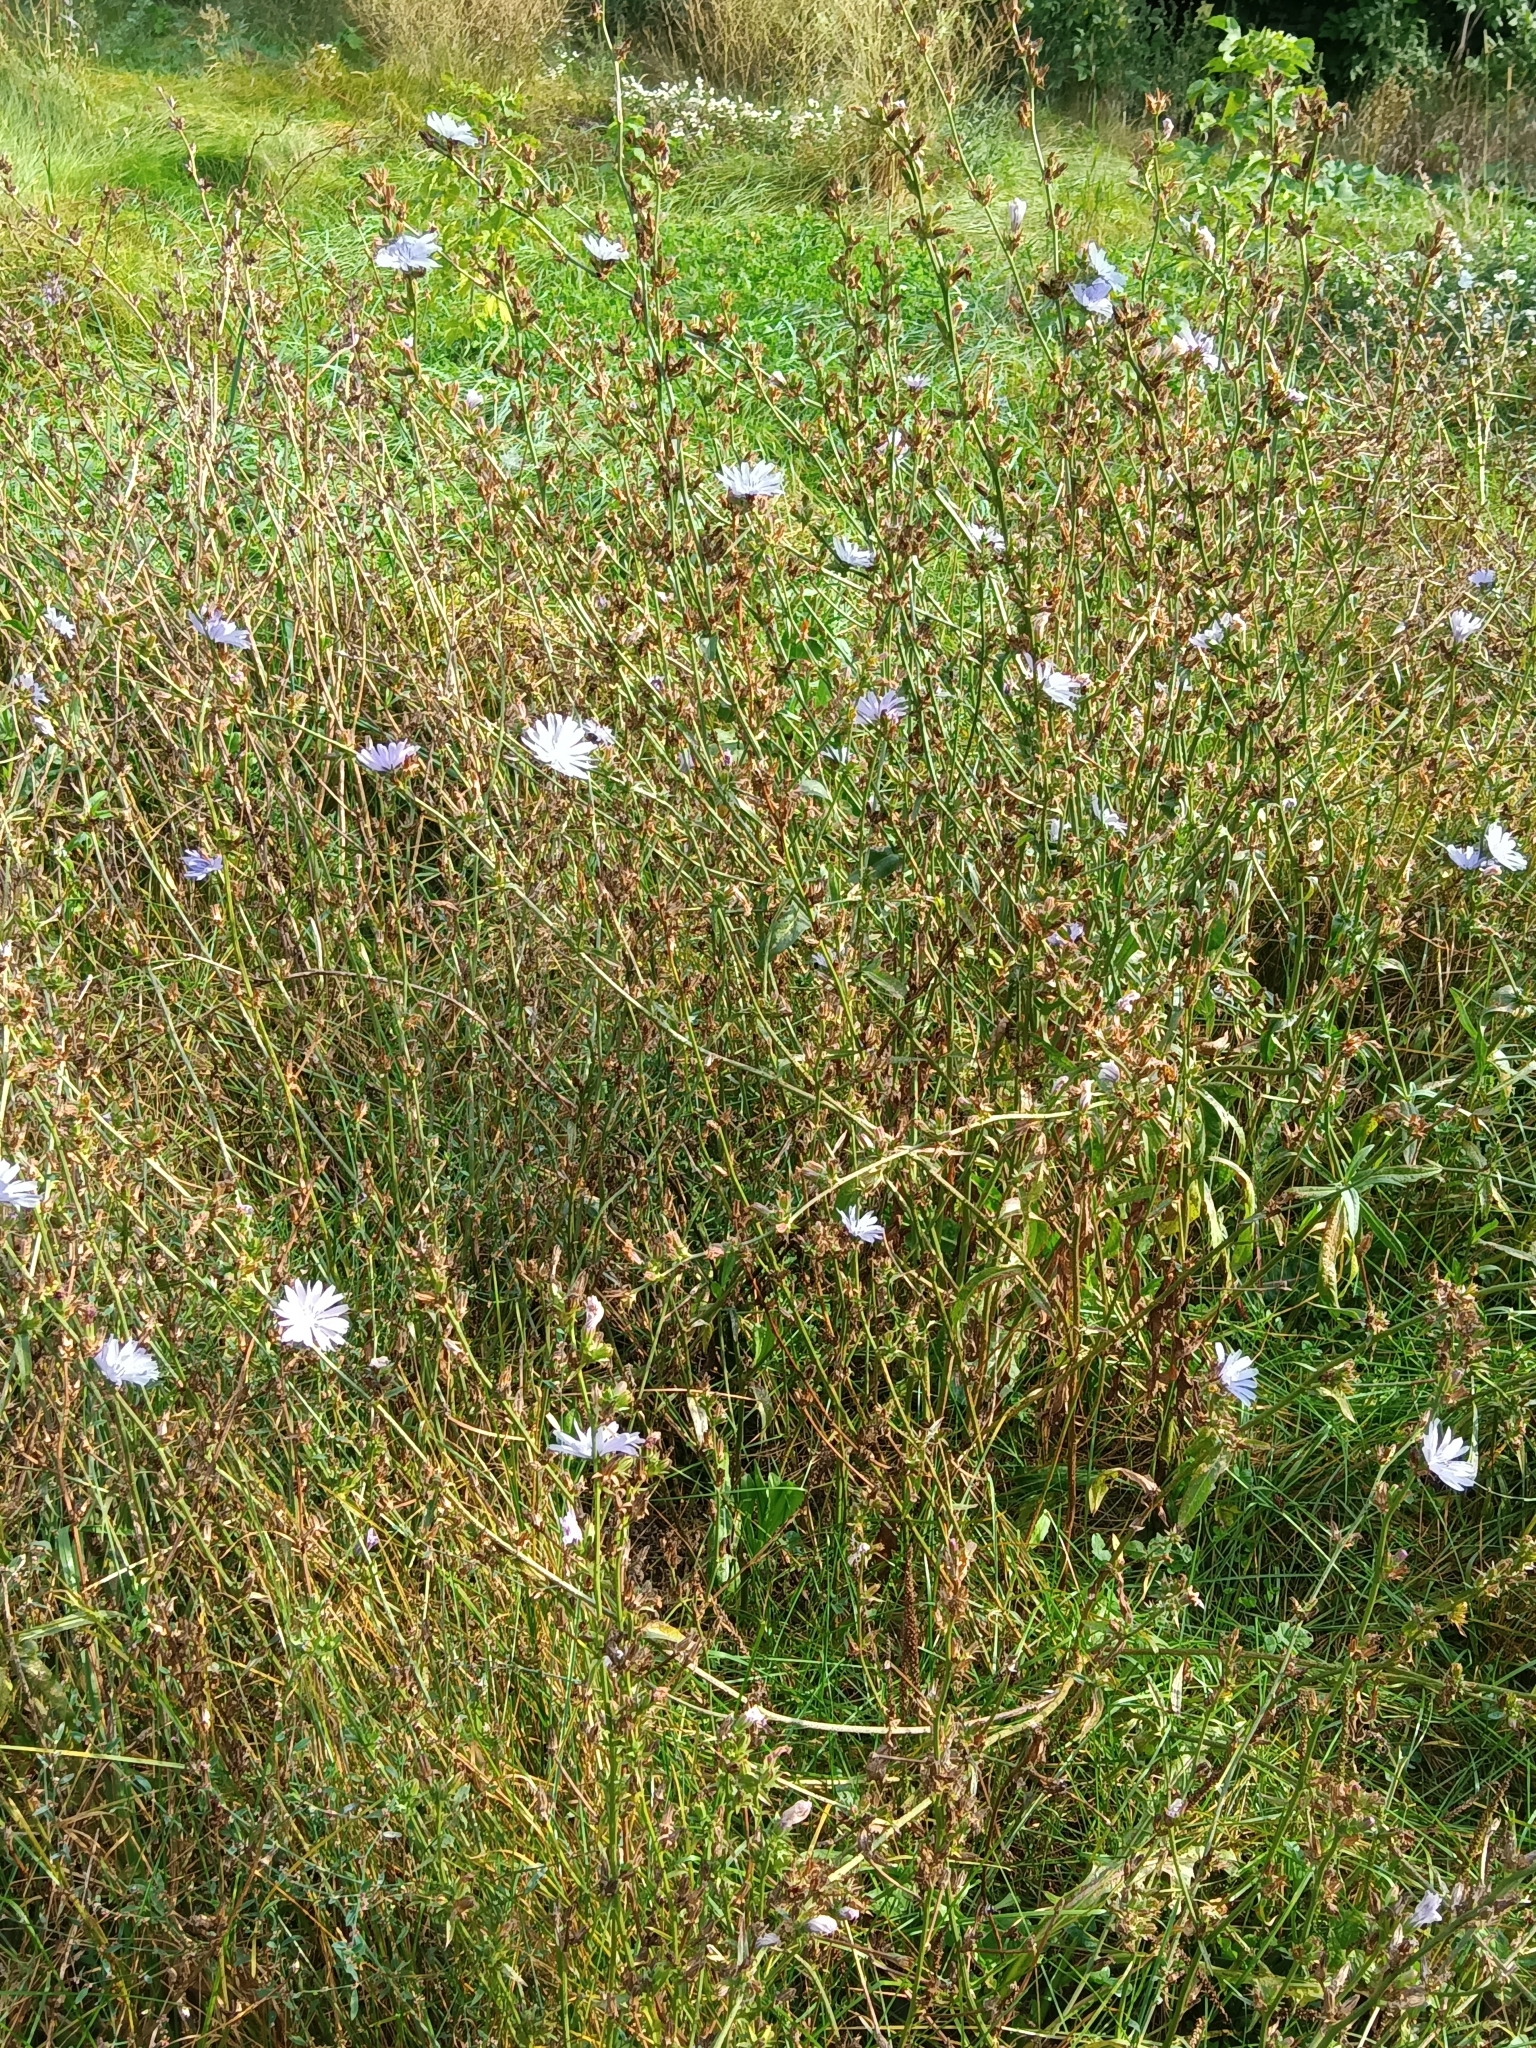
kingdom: Plantae
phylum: Tracheophyta
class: Magnoliopsida
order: Asterales
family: Asteraceae
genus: Cichorium
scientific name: Cichorium intybus
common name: Chicory
